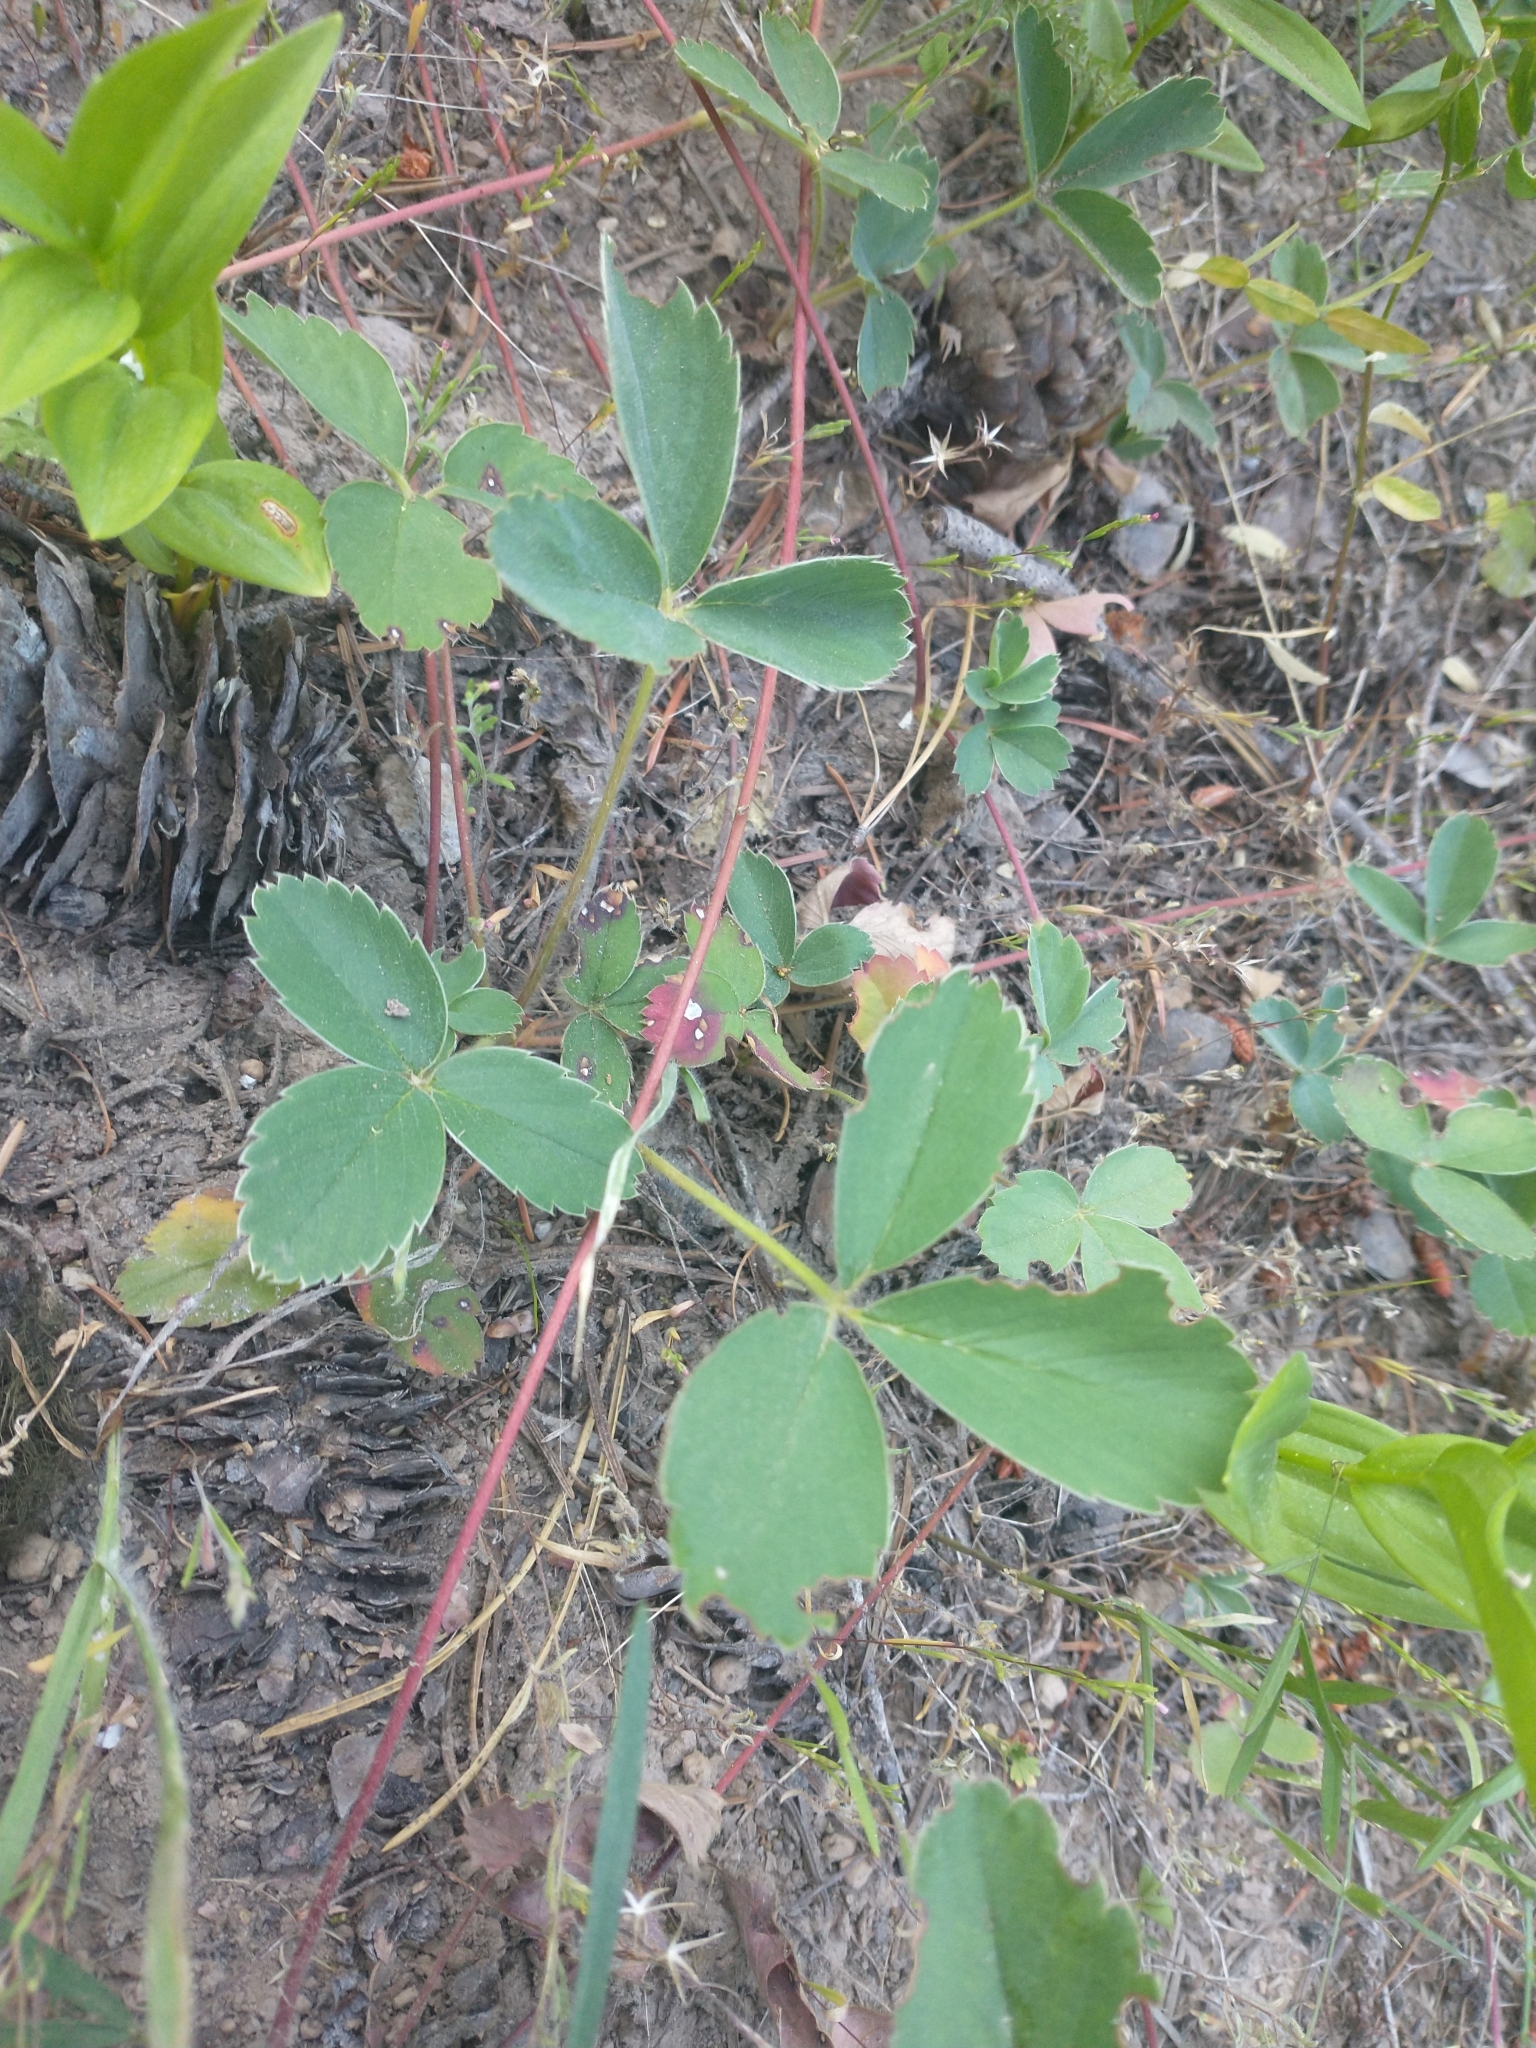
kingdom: Plantae
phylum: Tracheophyta
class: Magnoliopsida
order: Rosales
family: Rosaceae
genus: Fragaria
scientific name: Fragaria virginiana
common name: Thickleaved wild strawberry
